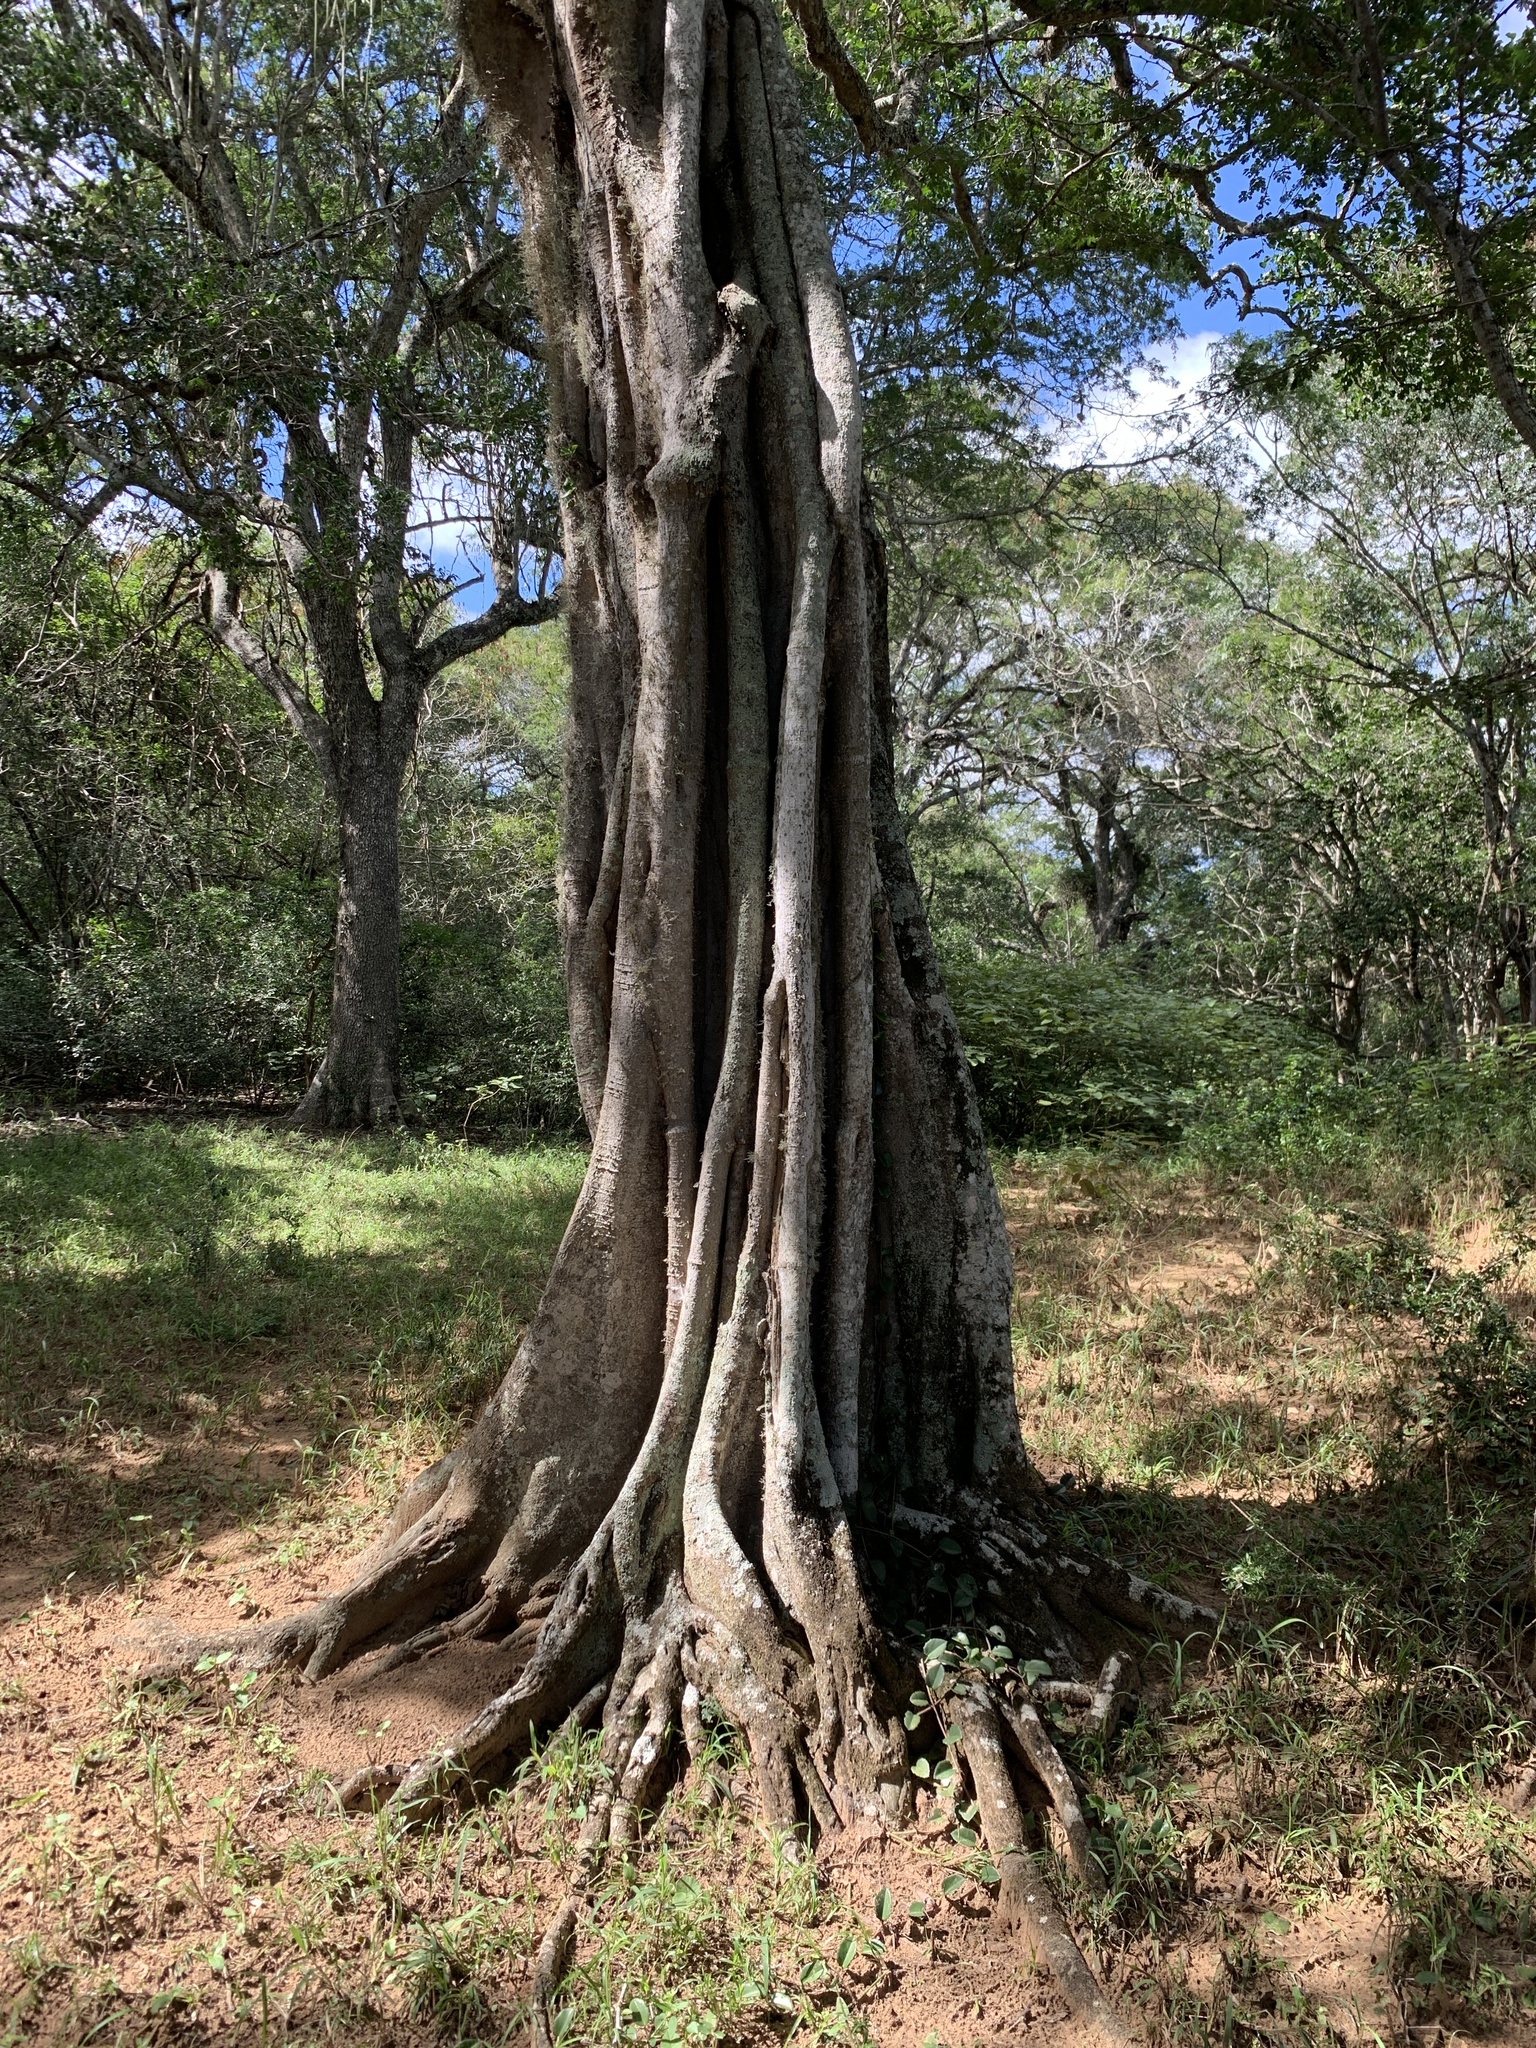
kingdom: Plantae
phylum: Tracheophyta
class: Magnoliopsida
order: Zygophyllales
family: Zygophyllaceae
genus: Balanites
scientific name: Balanites maughamii
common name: Torchwood
